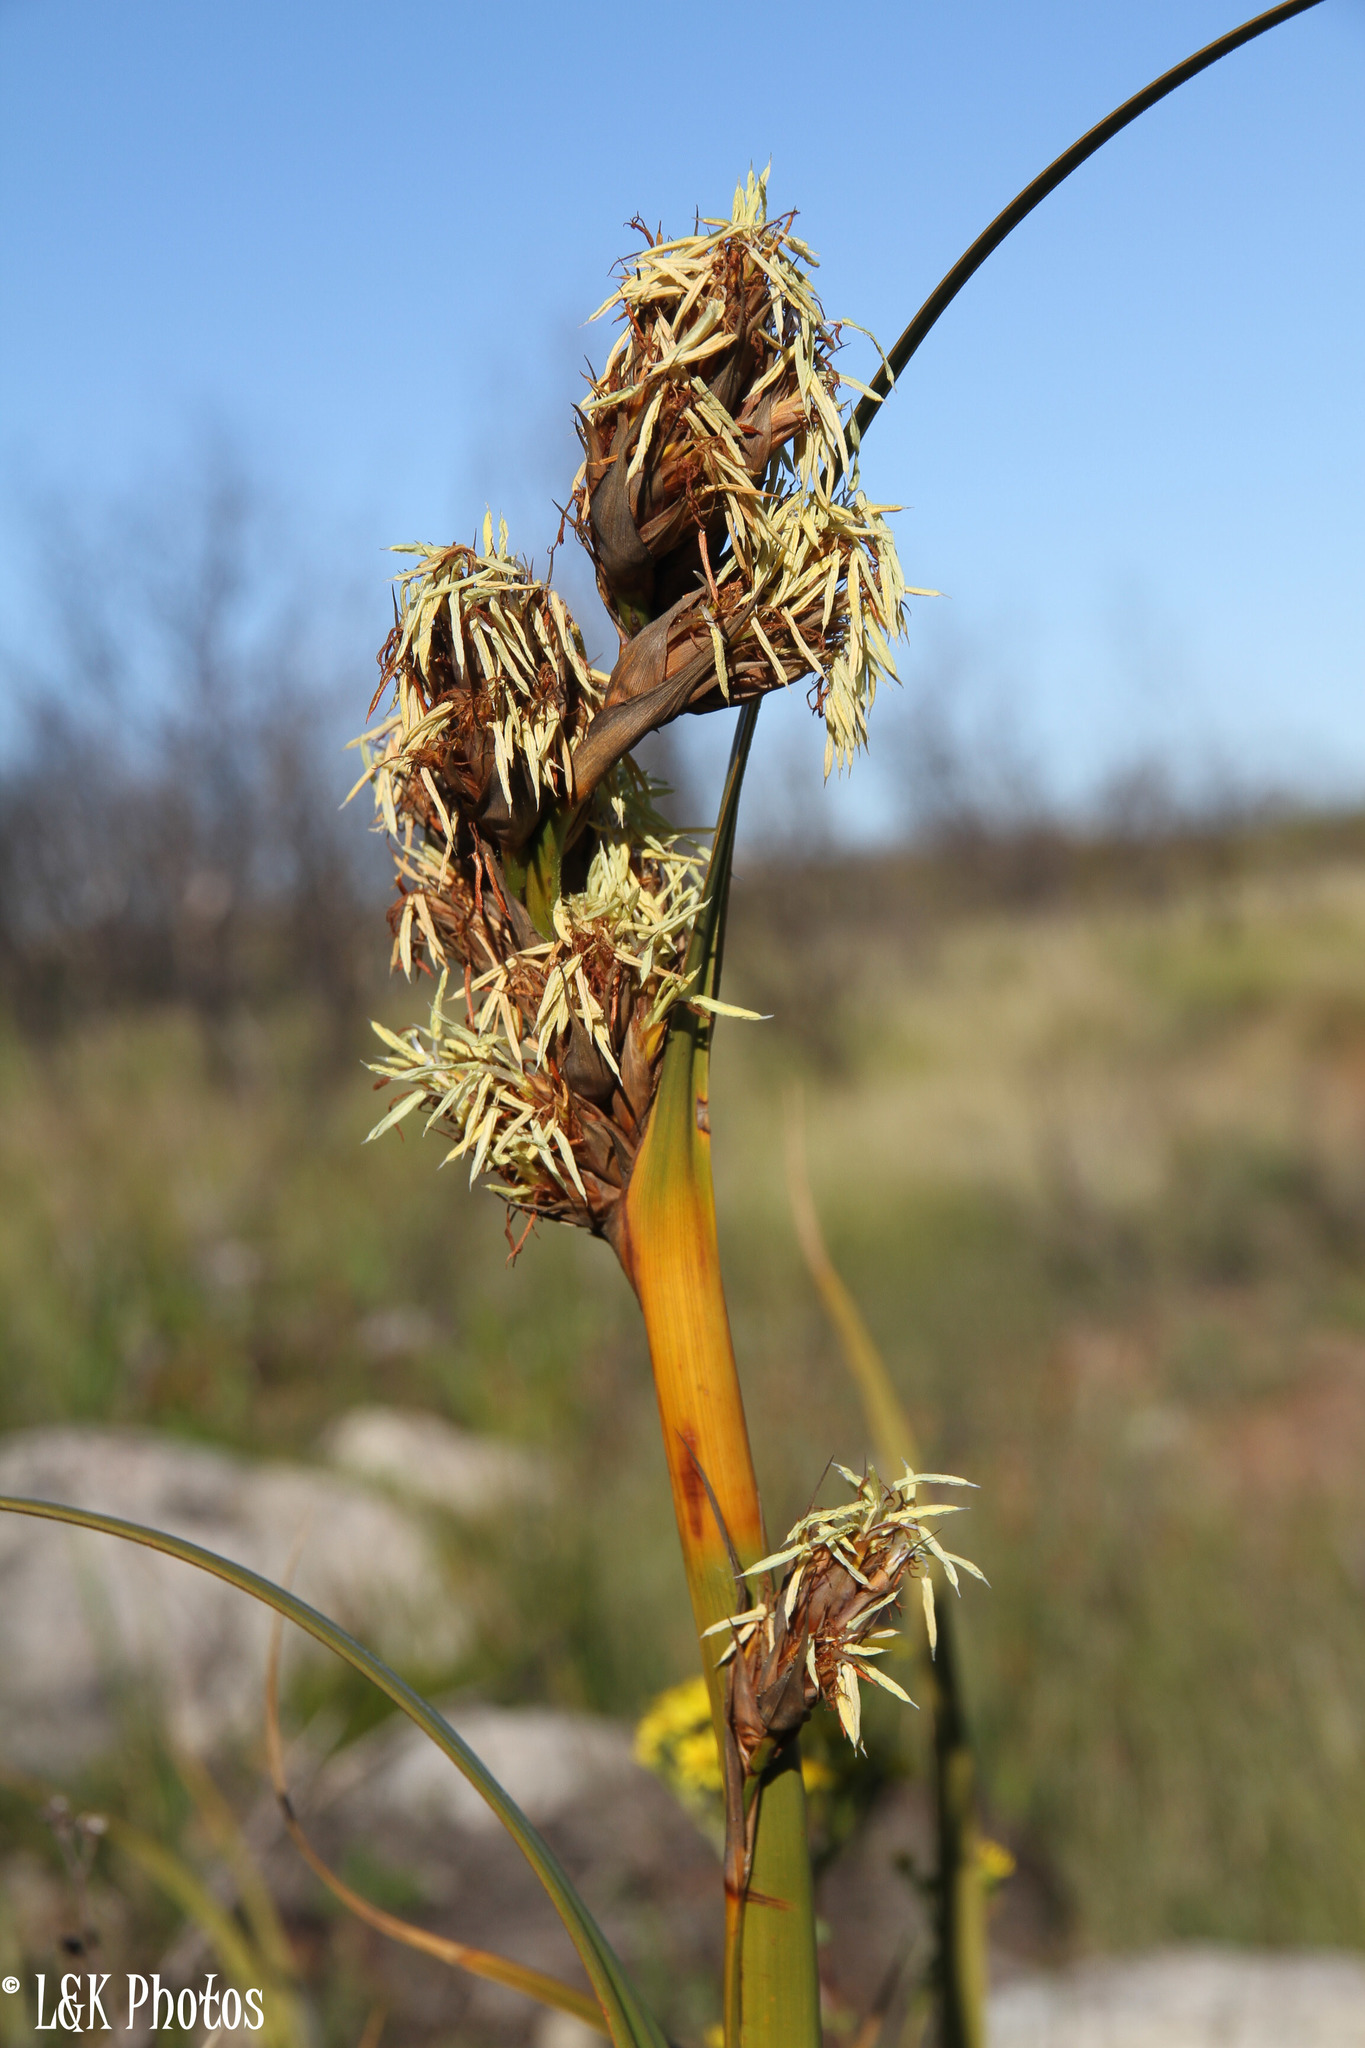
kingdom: Plantae
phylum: Tracheophyta
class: Liliopsida
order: Poales
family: Cyperaceae
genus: Tetraria
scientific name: Tetraria thermalis
